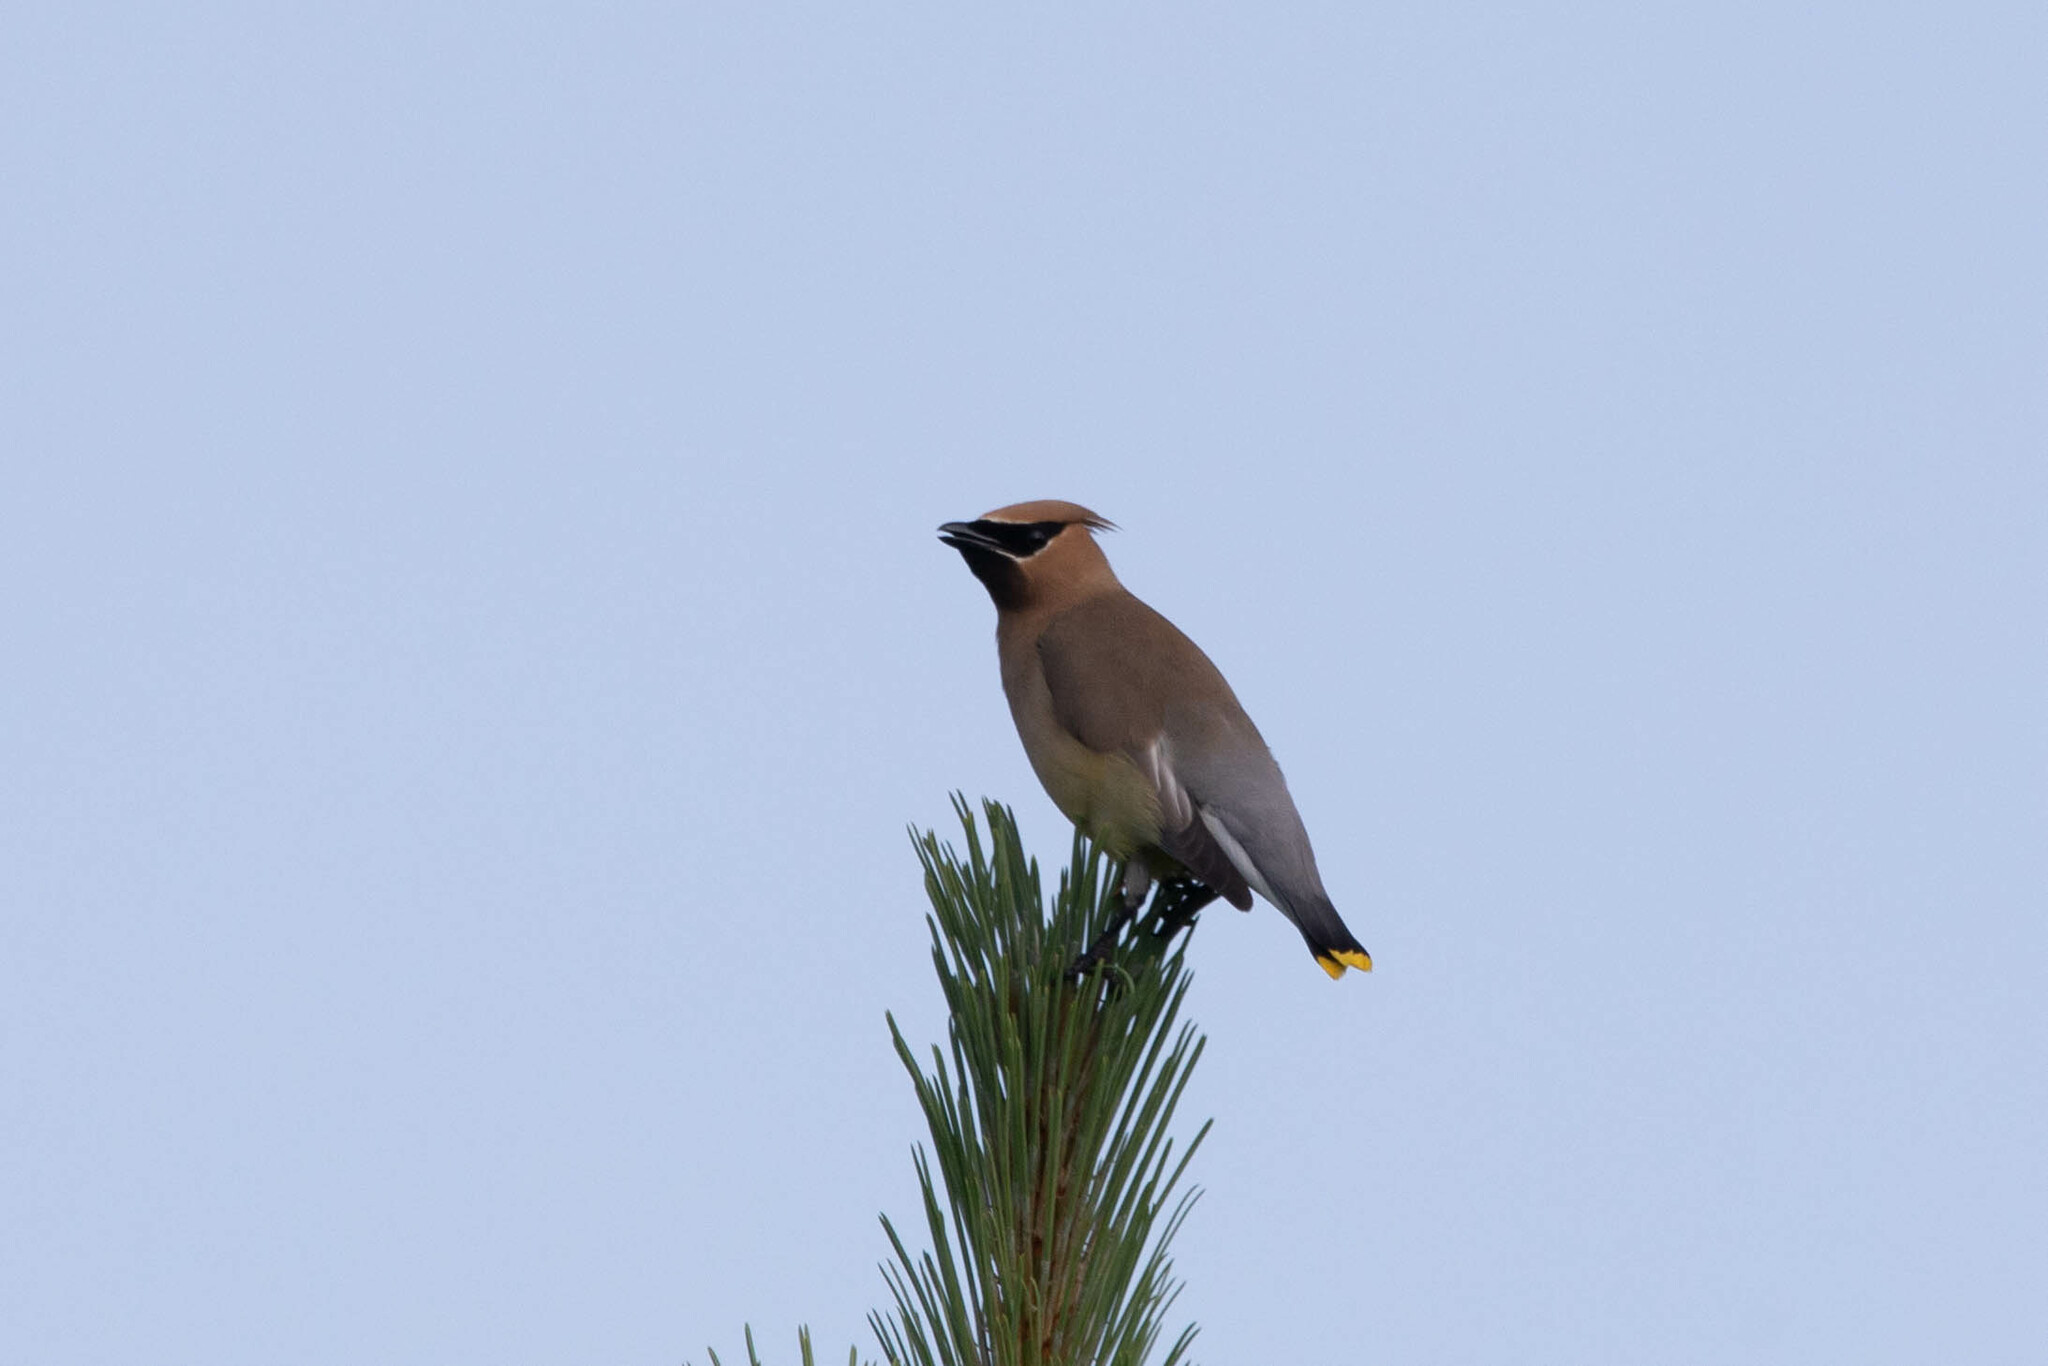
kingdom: Animalia
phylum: Chordata
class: Aves
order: Passeriformes
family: Bombycillidae
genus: Bombycilla
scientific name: Bombycilla cedrorum
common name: Cedar waxwing
